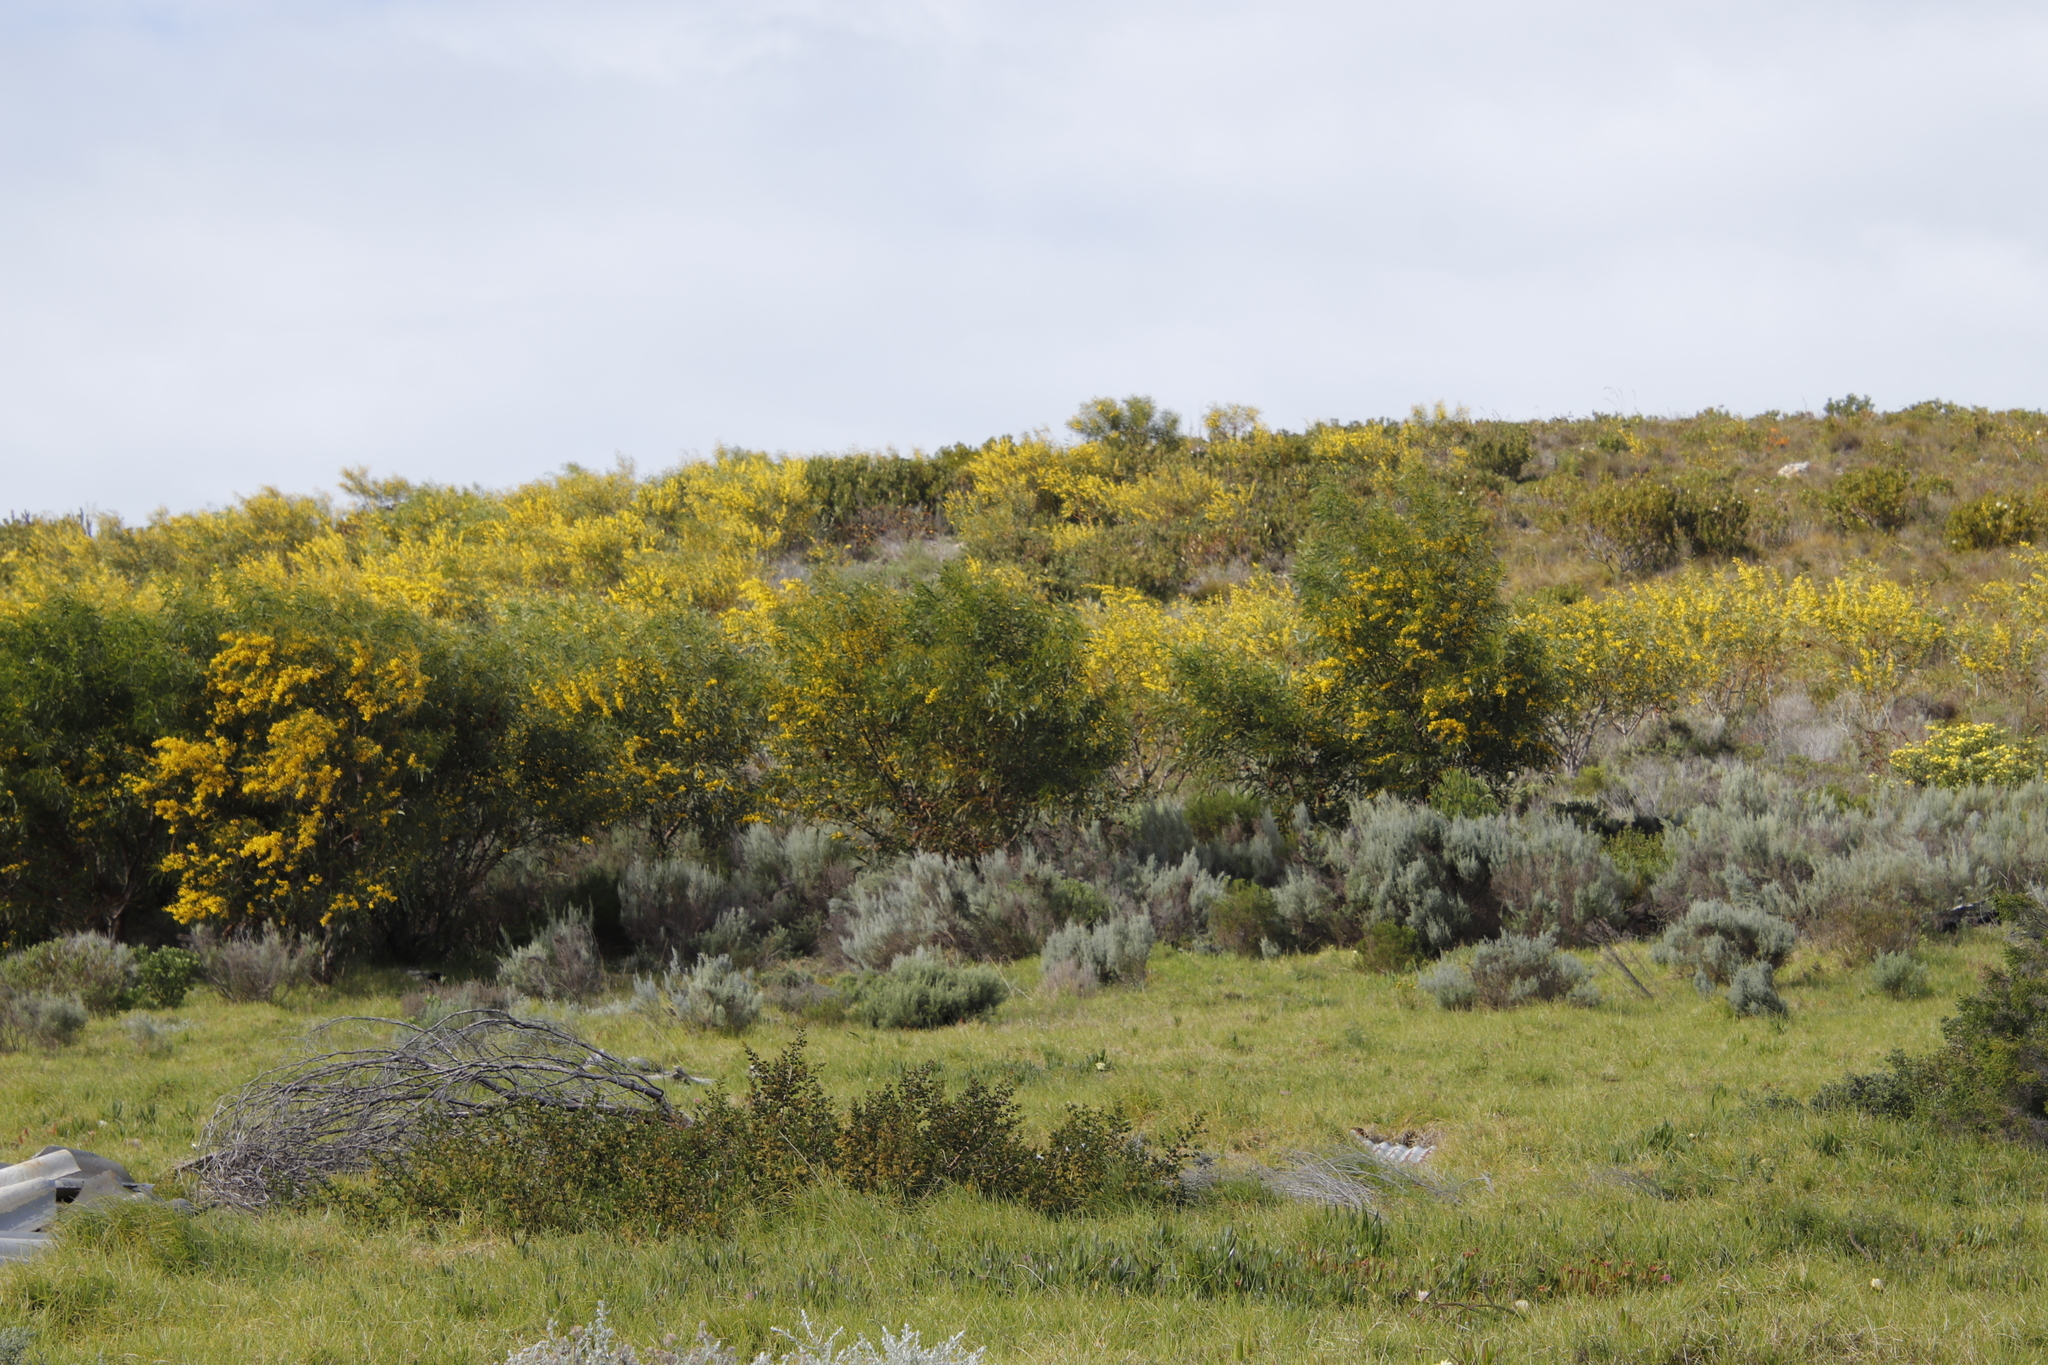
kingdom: Plantae
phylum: Tracheophyta
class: Magnoliopsida
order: Fabales
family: Fabaceae
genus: Acacia
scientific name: Acacia saligna
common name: Orange wattle
